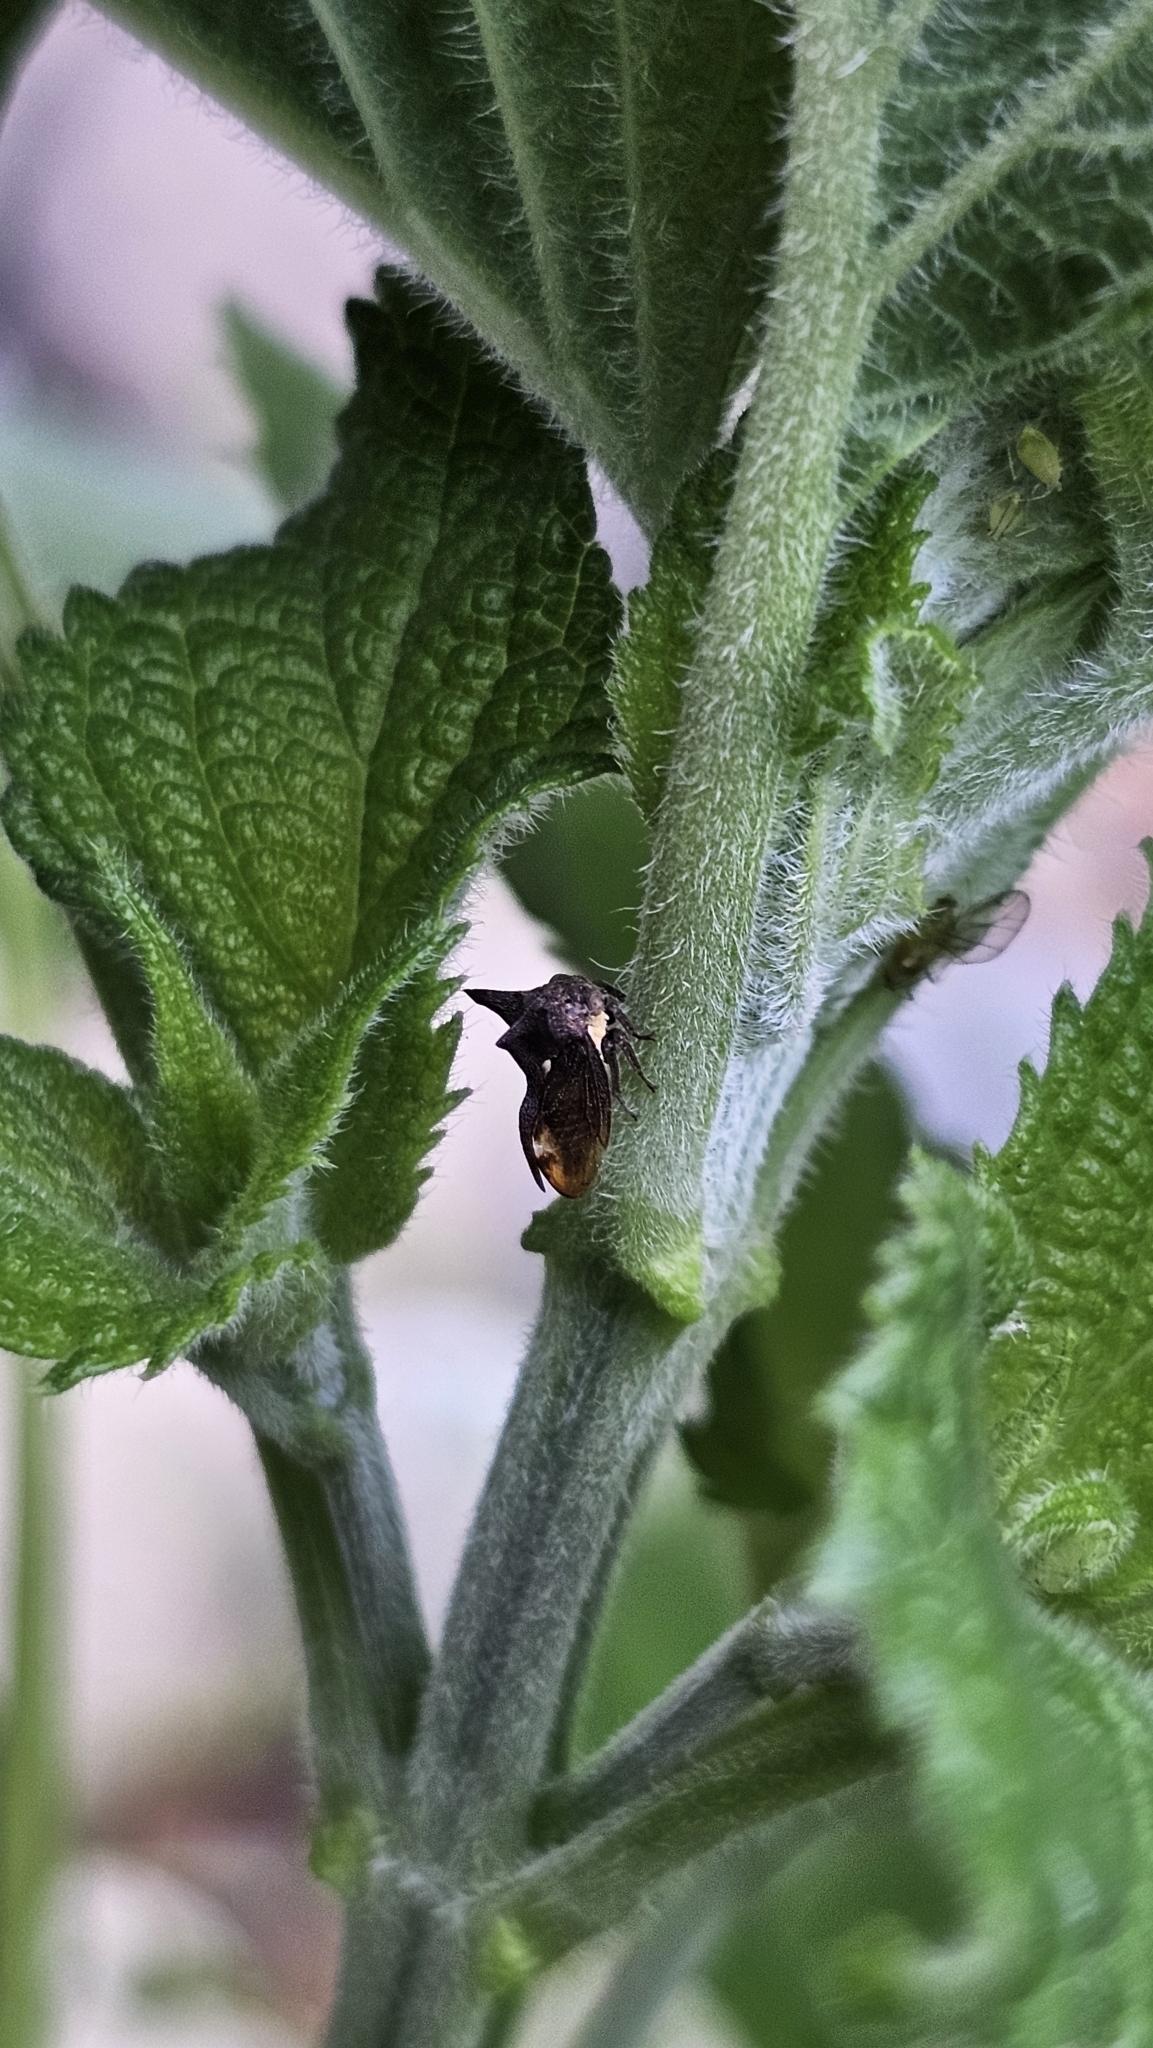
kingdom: Animalia
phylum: Arthropoda
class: Insecta
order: Hemiptera
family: Membracidae
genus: Acanthuchus
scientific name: Acanthuchus trispinifer
